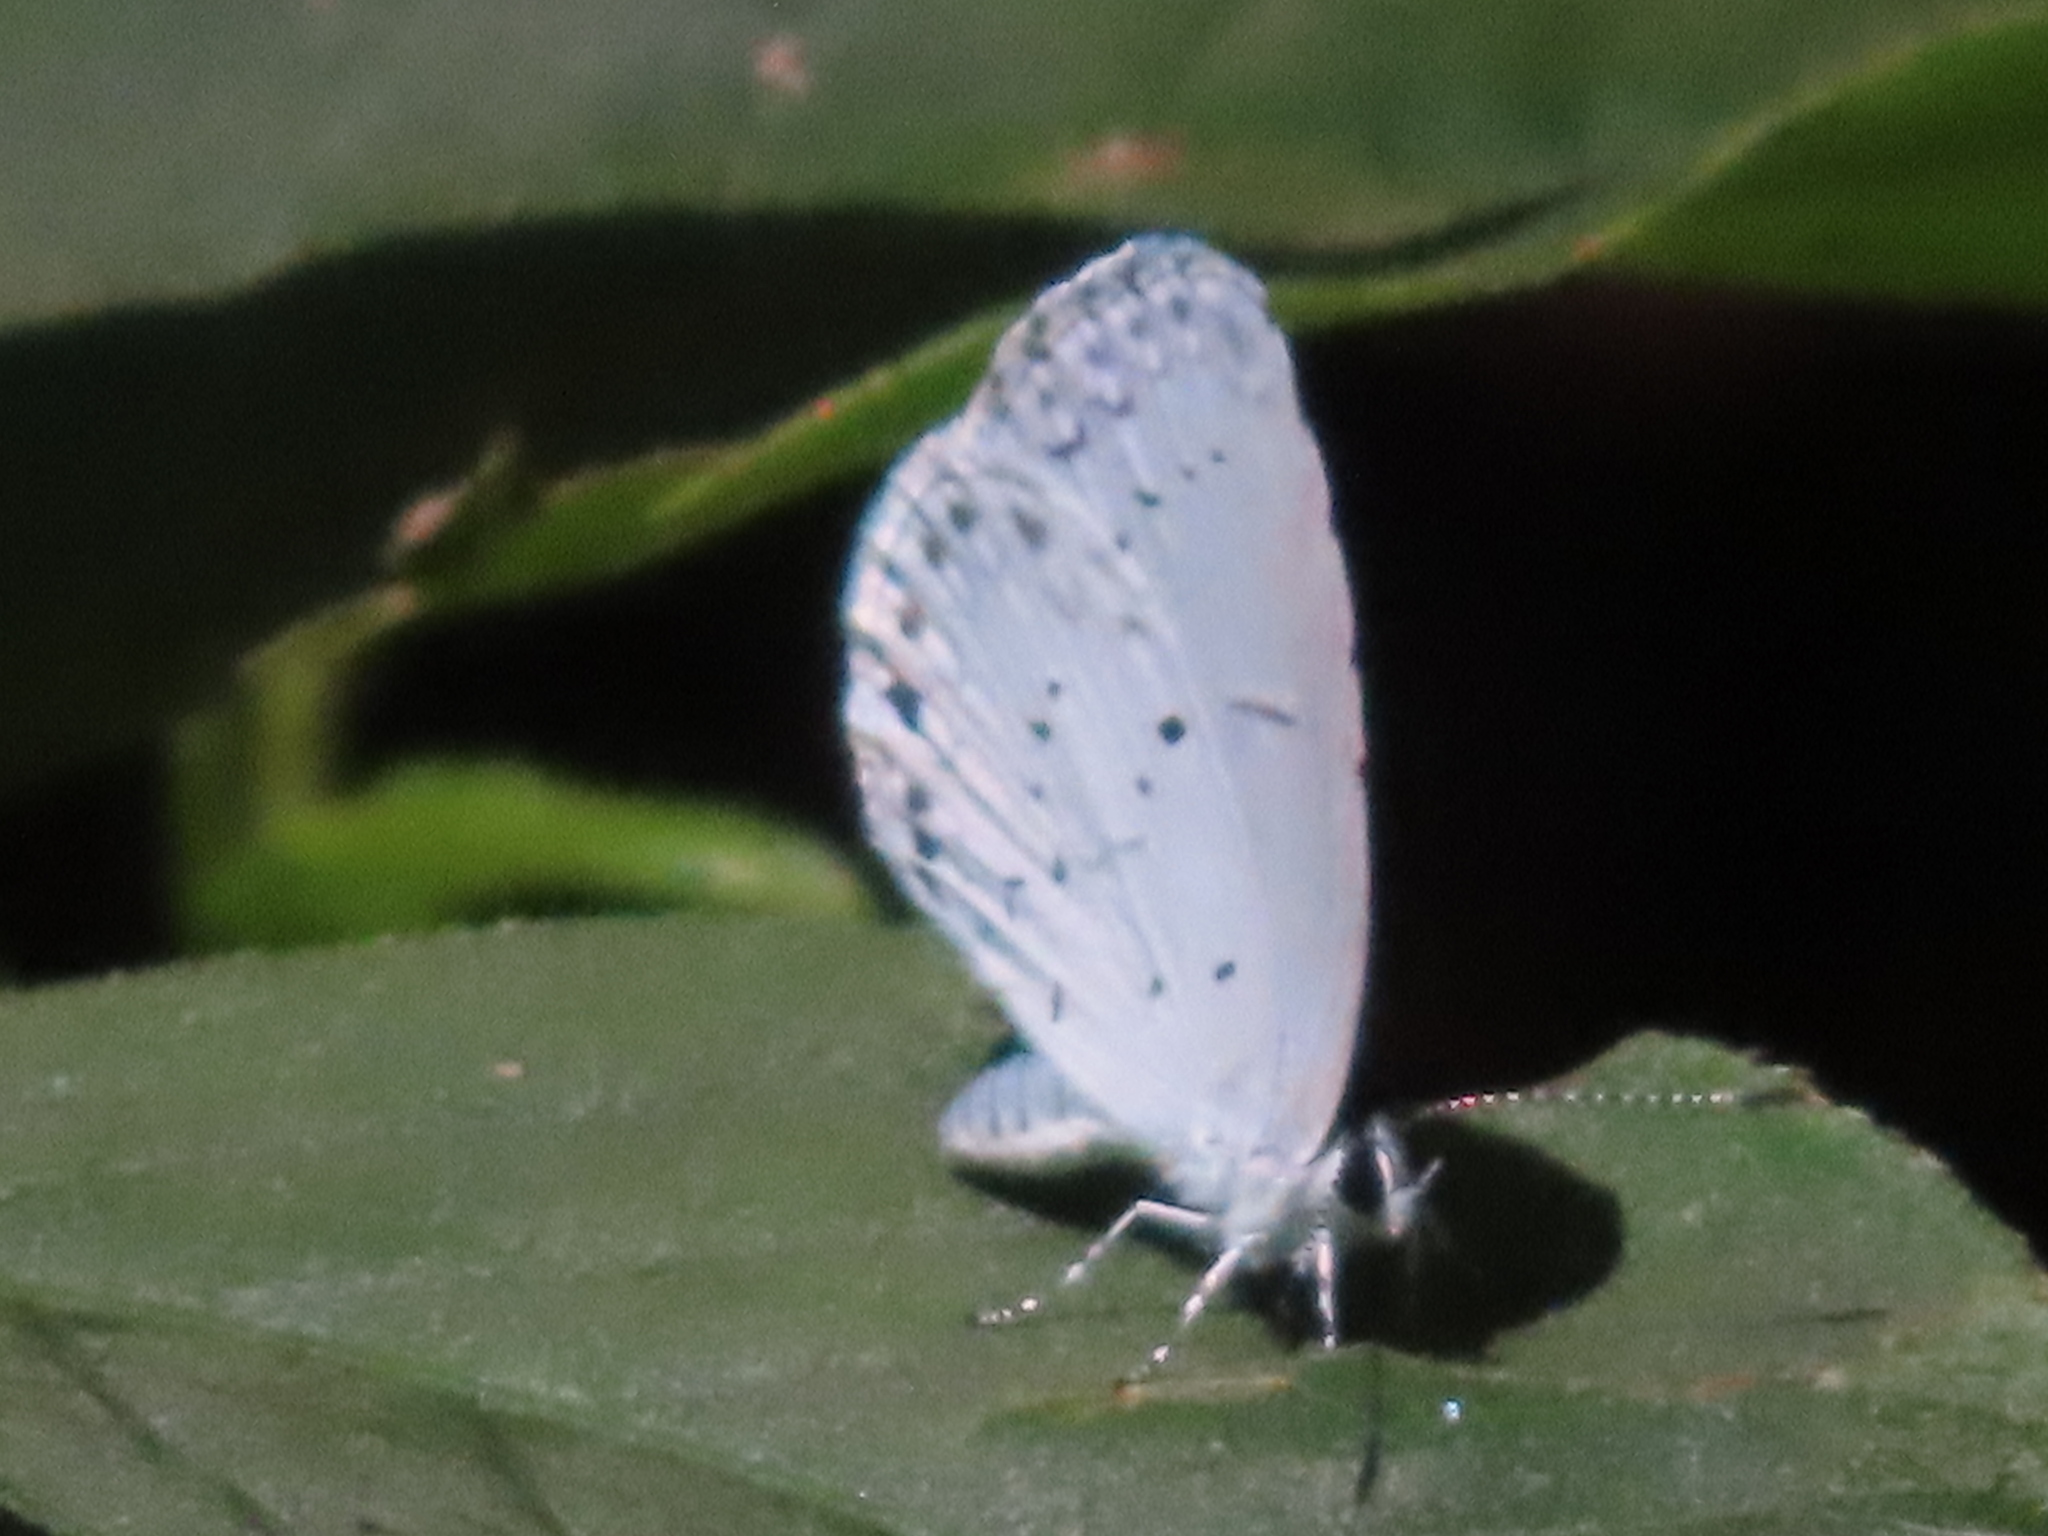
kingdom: Animalia
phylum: Arthropoda
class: Insecta
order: Lepidoptera
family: Lycaenidae
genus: Cyaniris
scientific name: Cyaniris neglecta
